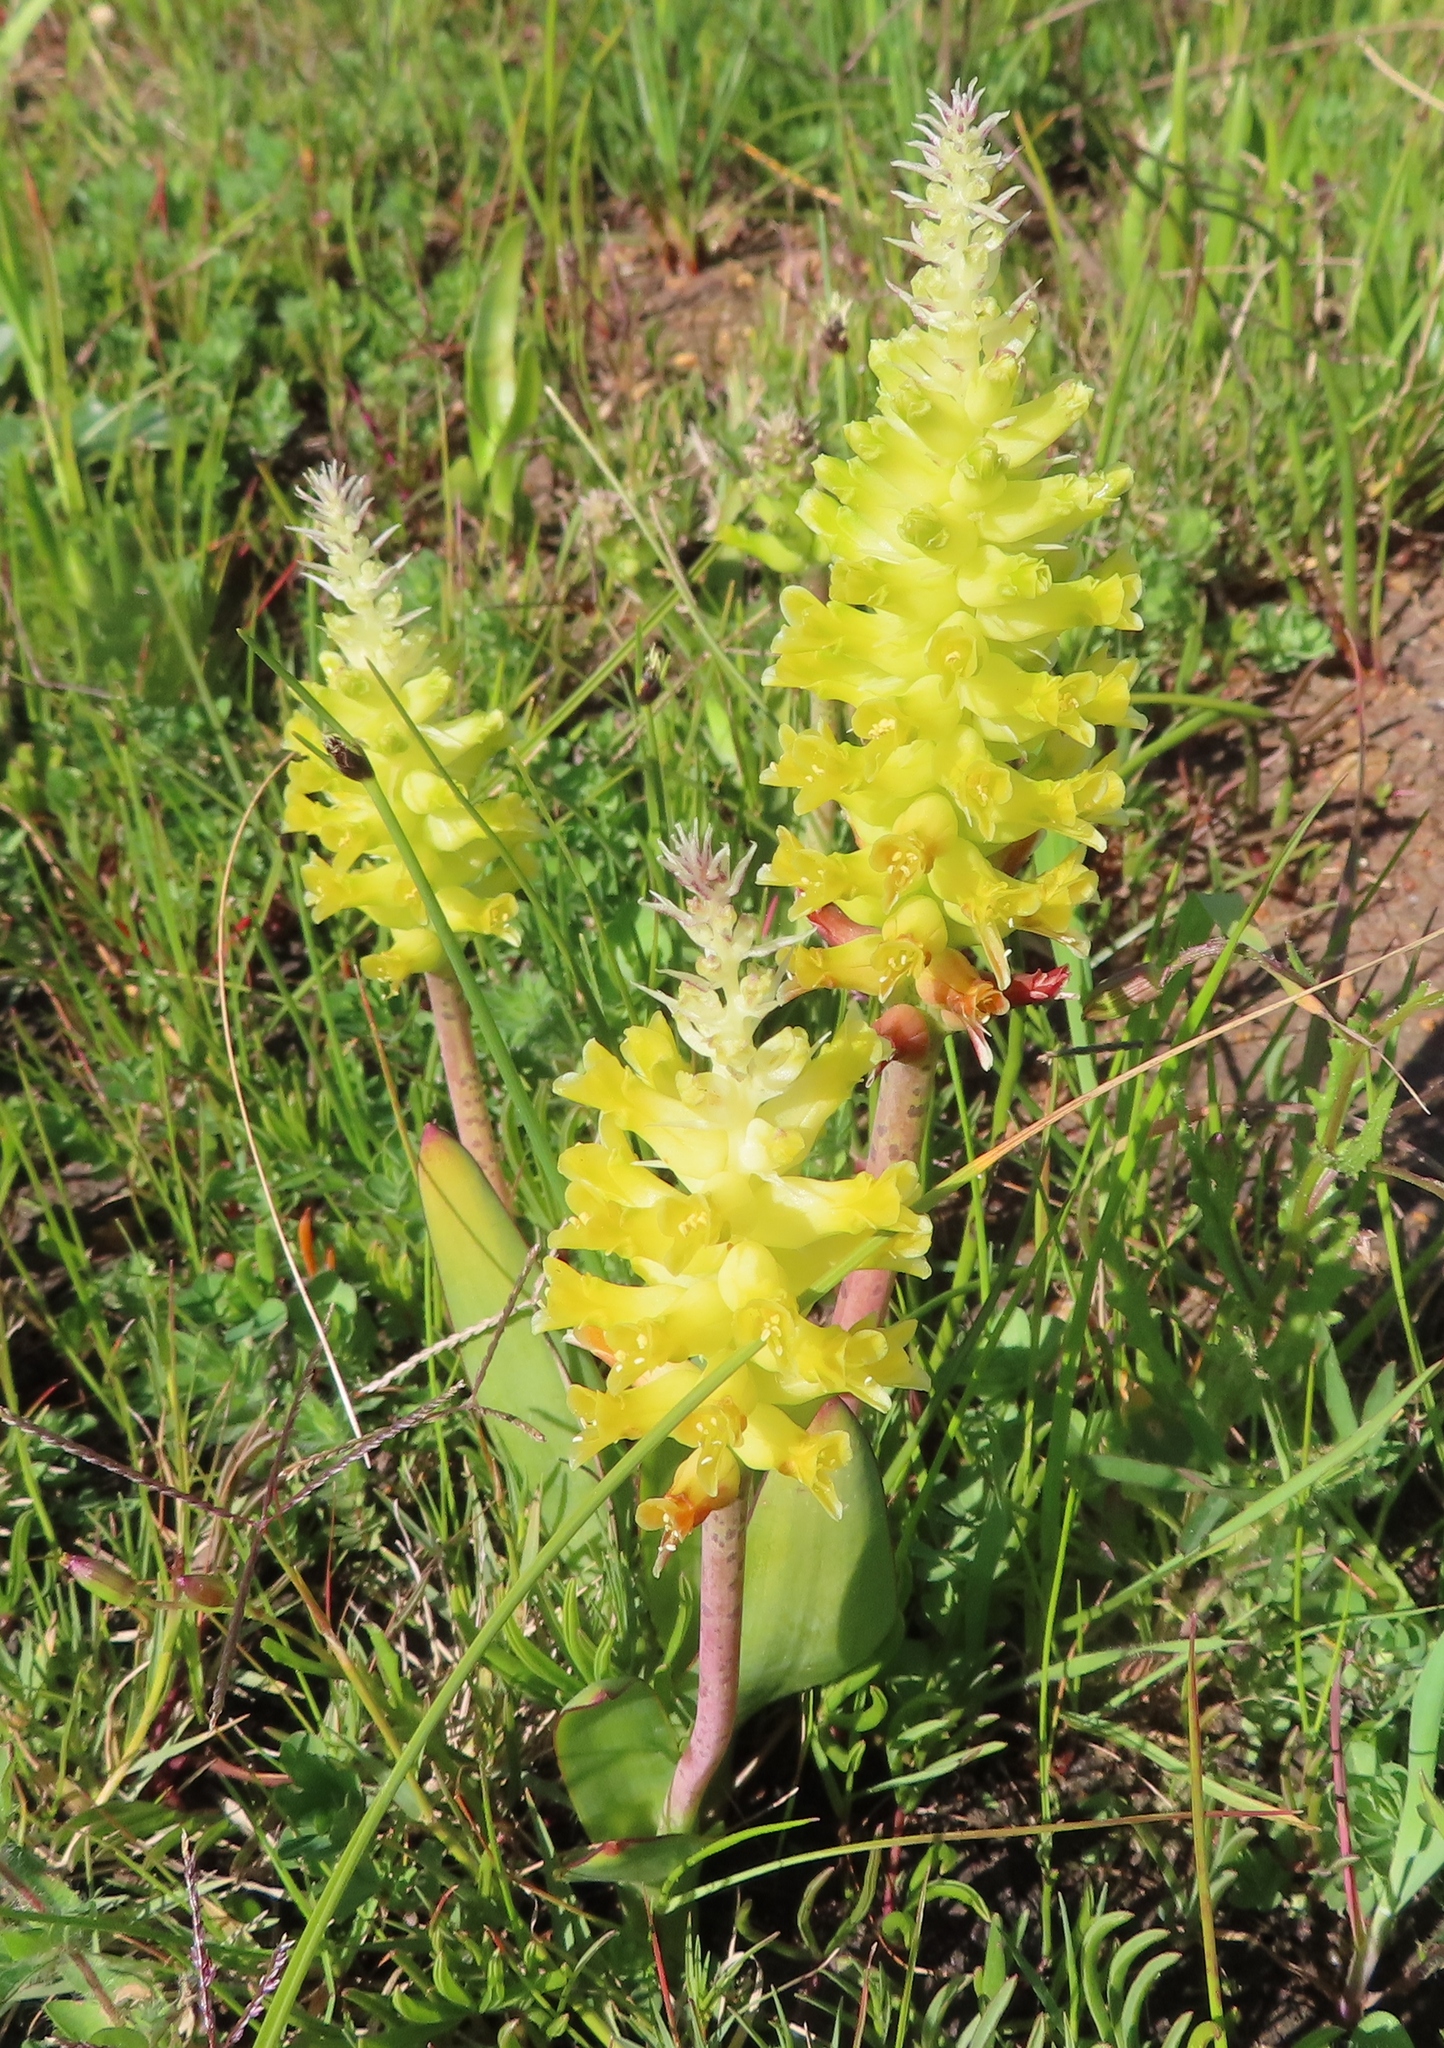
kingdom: Plantae
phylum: Tracheophyta
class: Liliopsida
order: Asparagales
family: Asparagaceae
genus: Lachenalia
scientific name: Lachenalia lutea
